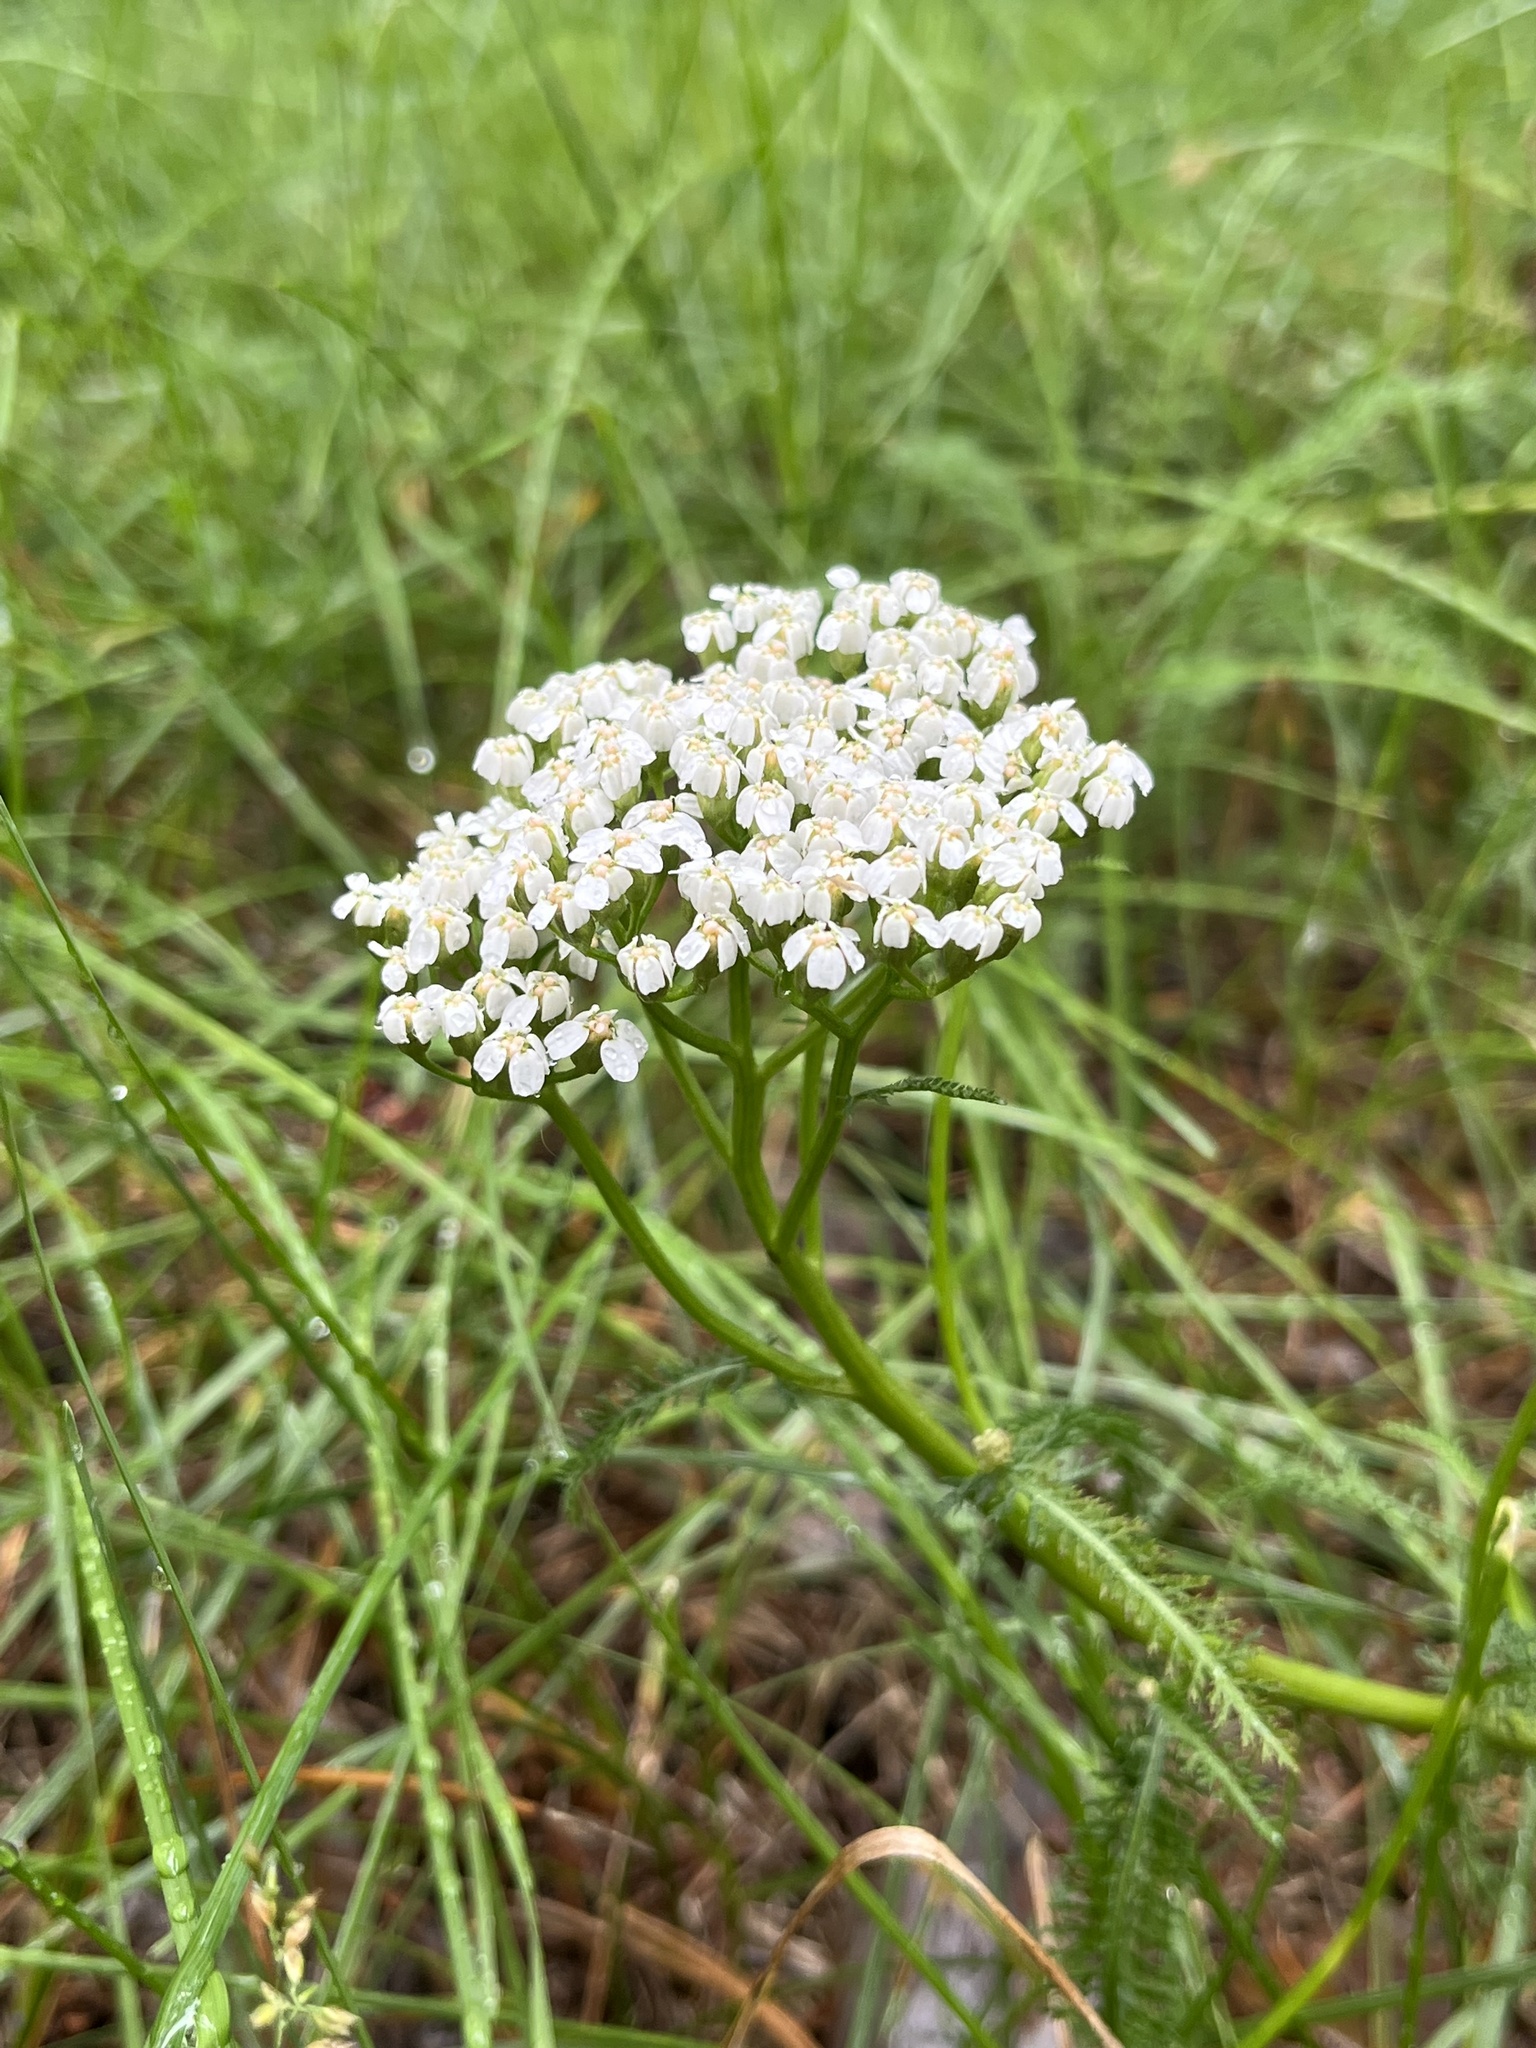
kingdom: Plantae
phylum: Tracheophyta
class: Magnoliopsida
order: Asterales
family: Asteraceae
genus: Achillea
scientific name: Achillea millefolium
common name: Yarrow
